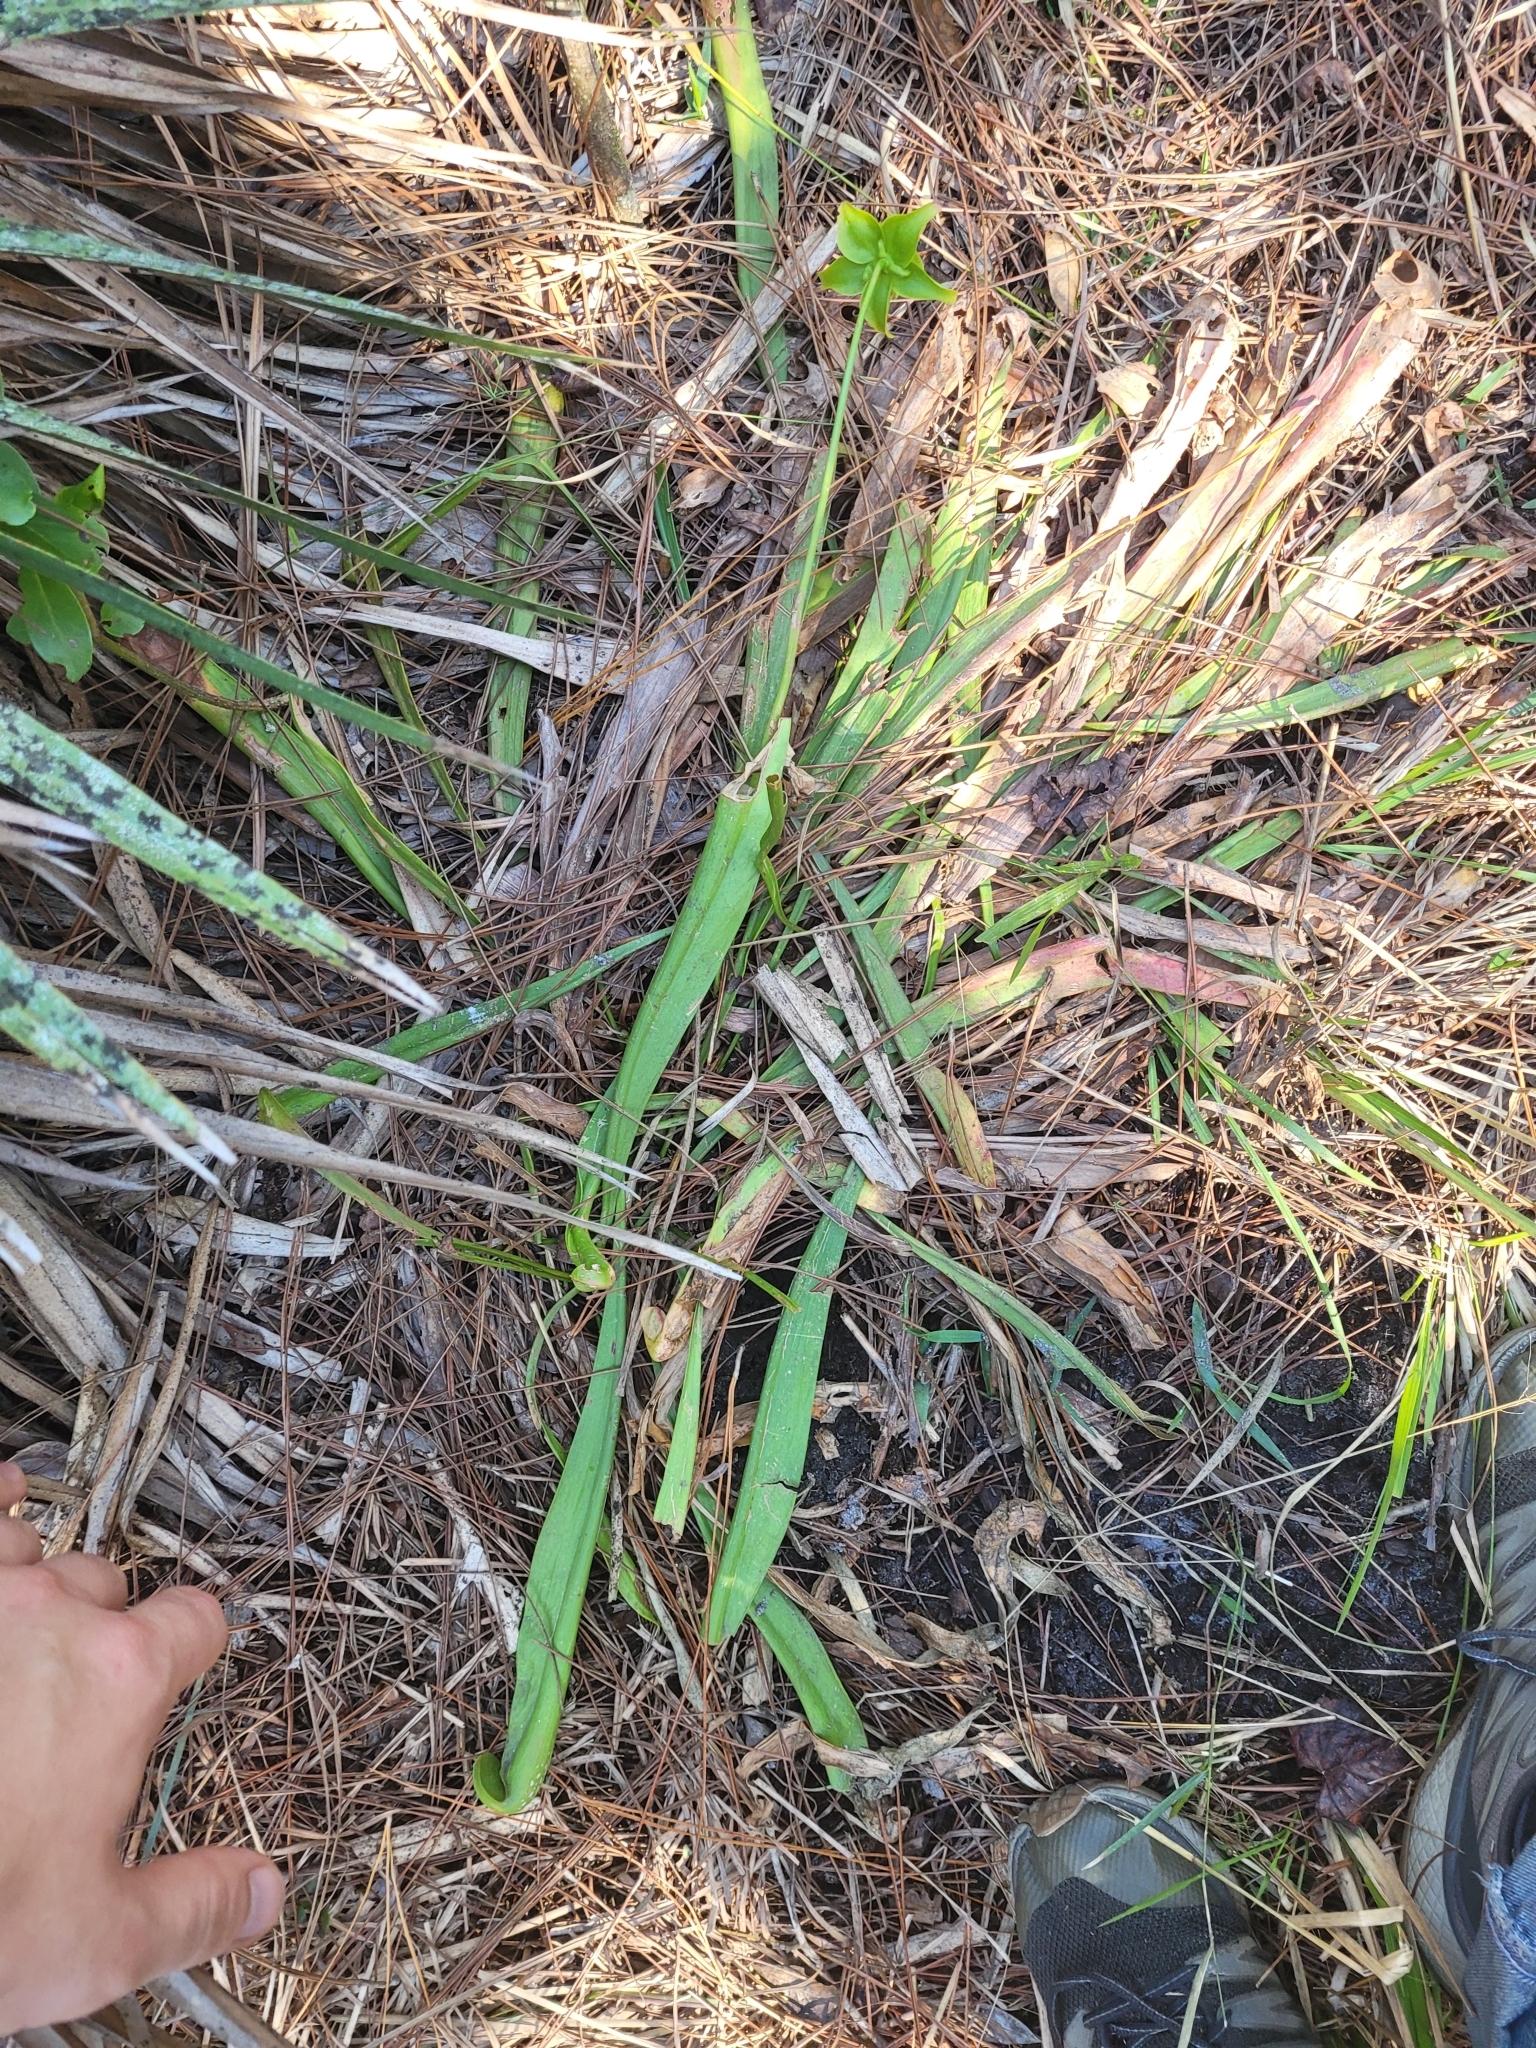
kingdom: Plantae
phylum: Tracheophyta
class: Magnoliopsida
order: Ericales
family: Sarraceniaceae
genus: Sarracenia
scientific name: Sarracenia minor
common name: Rainhat-trumpet
